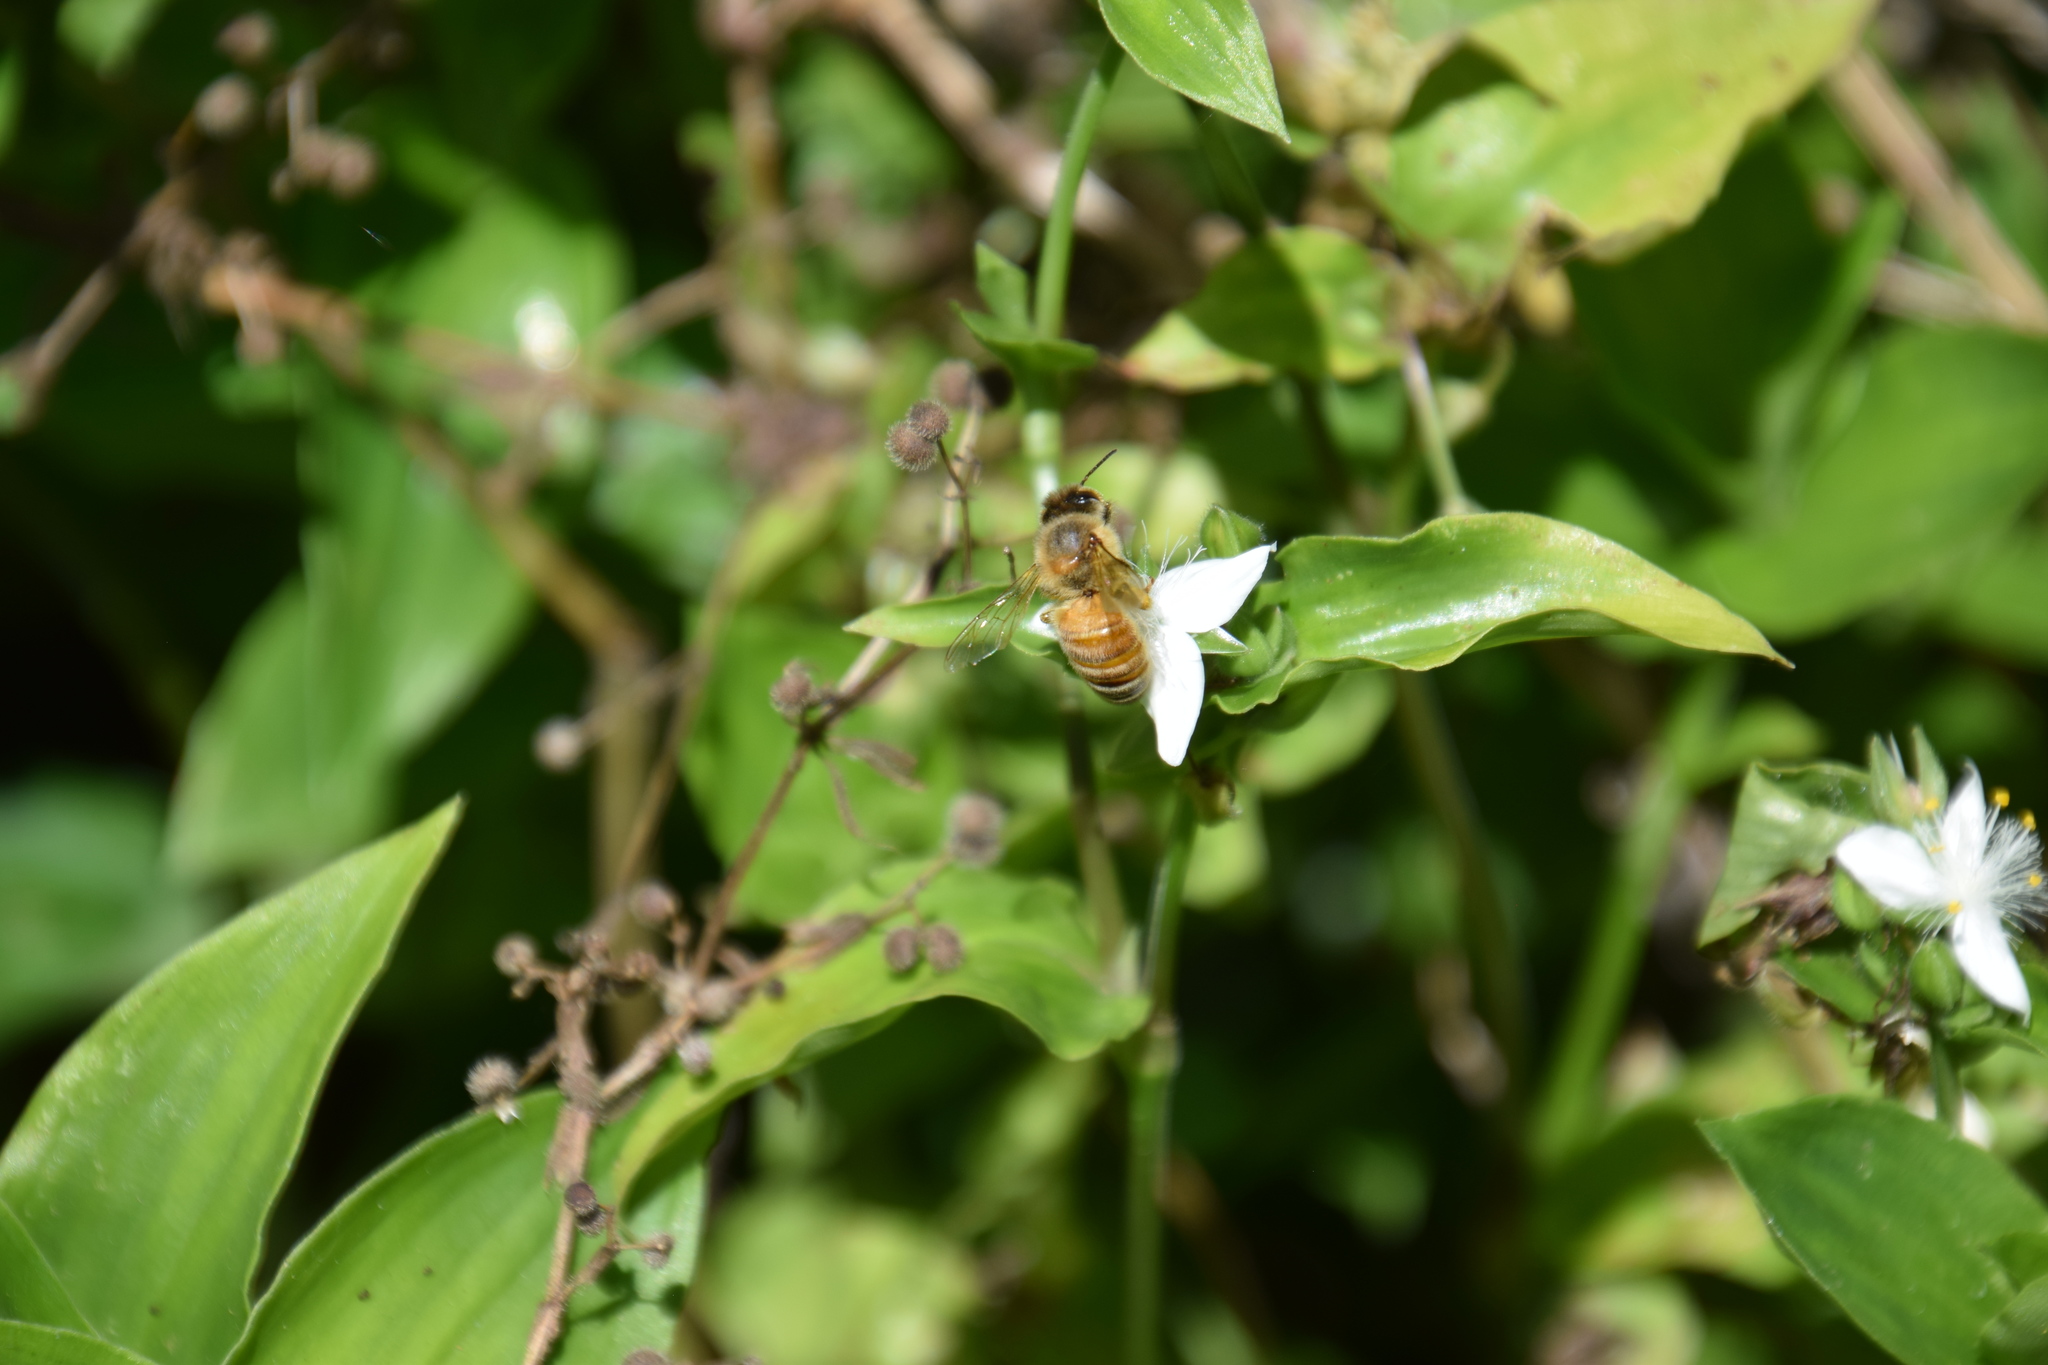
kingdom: Animalia
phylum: Arthropoda
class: Insecta
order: Hymenoptera
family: Apidae
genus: Apis
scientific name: Apis mellifera
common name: Honey bee
